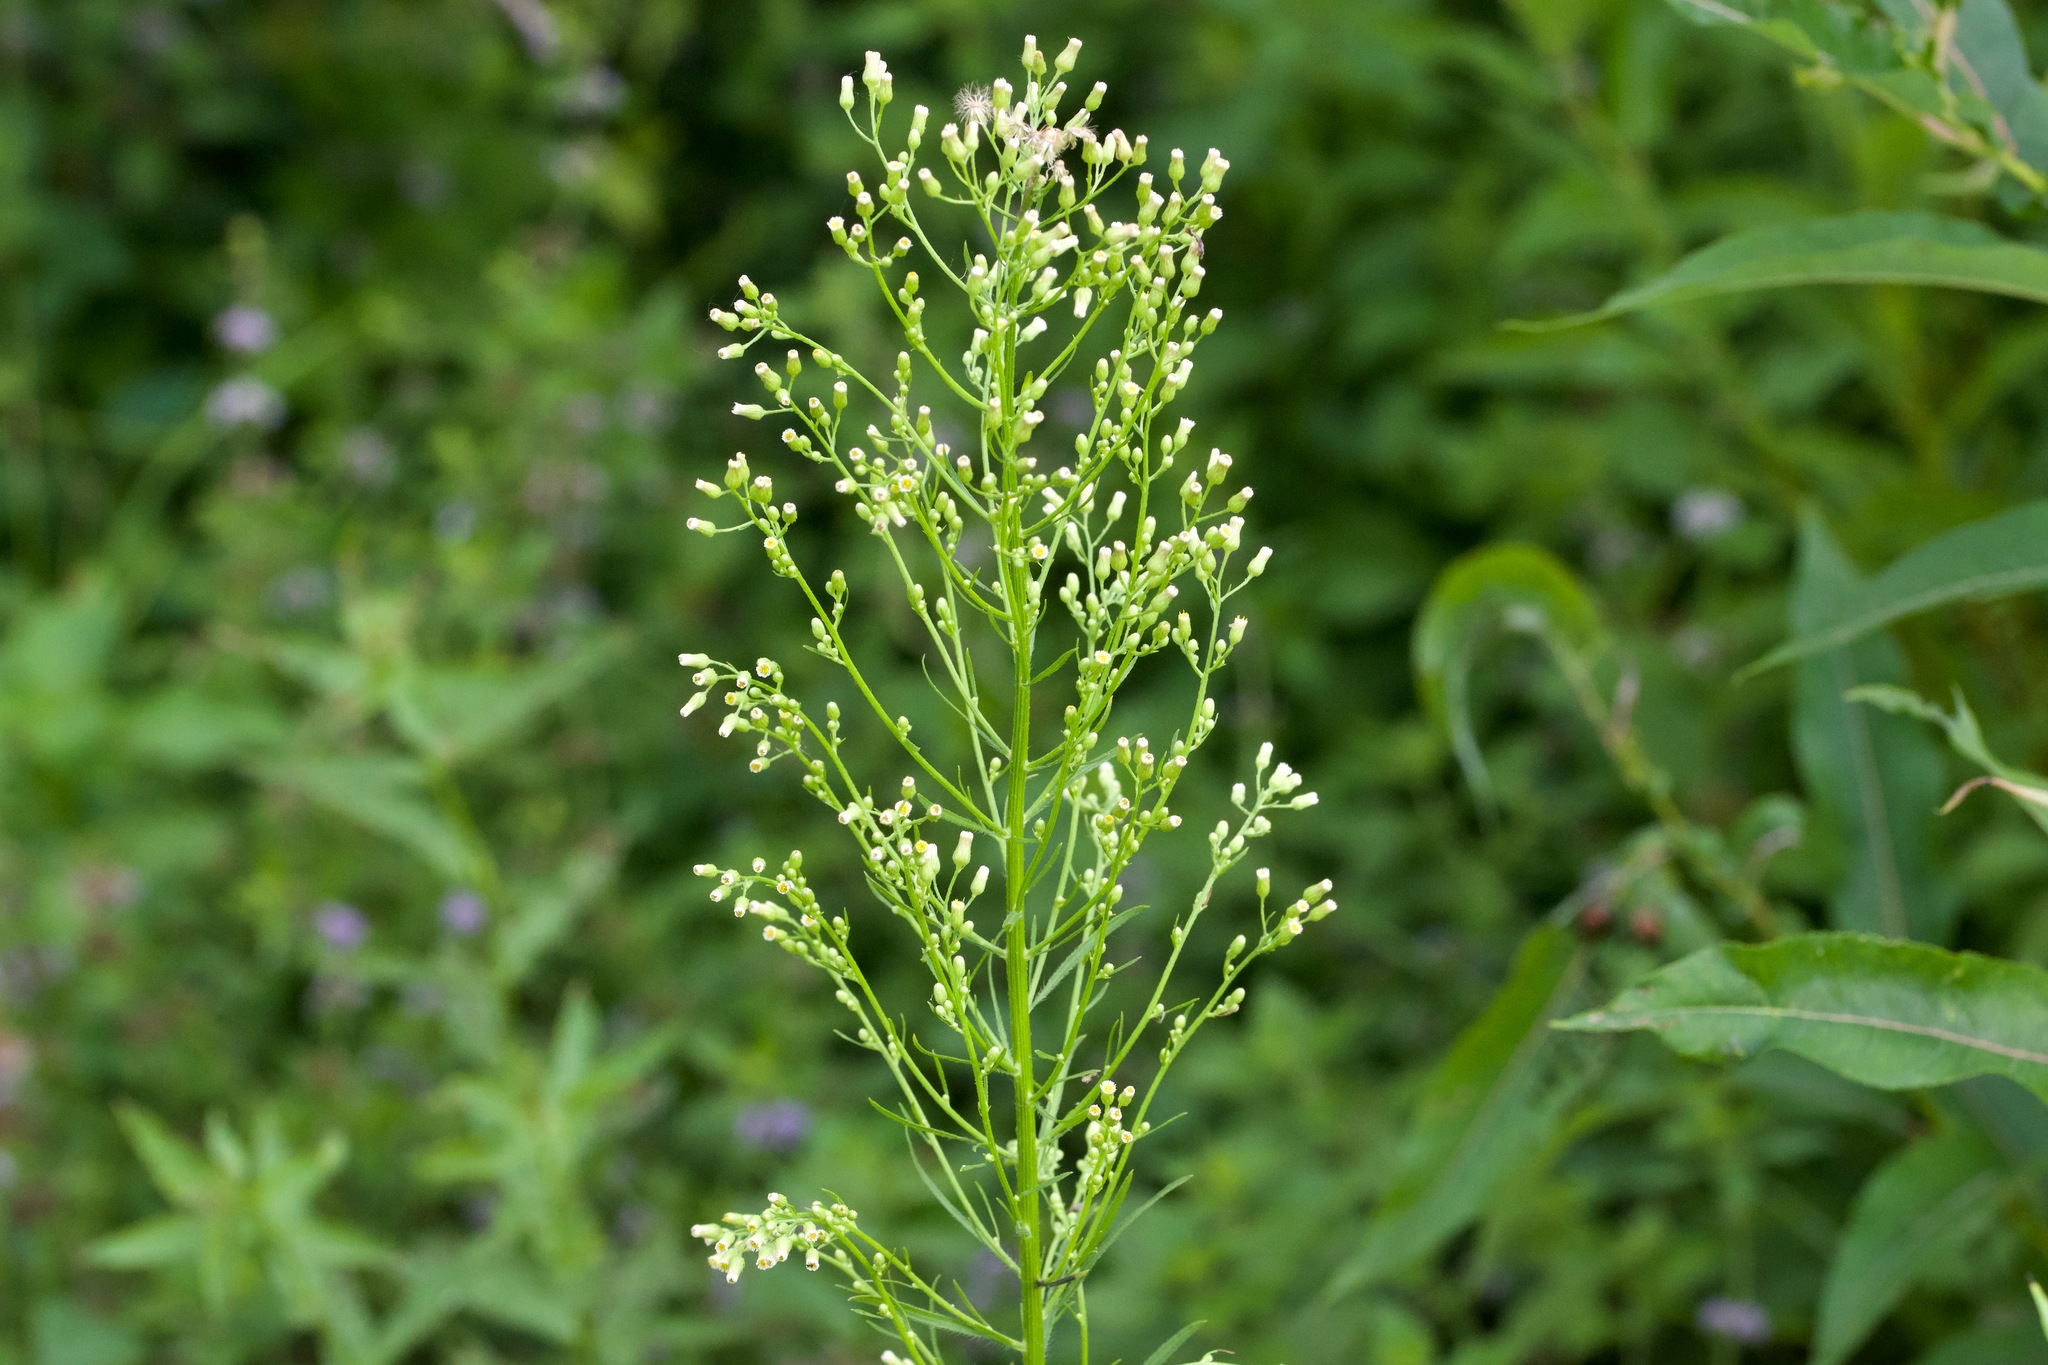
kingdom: Plantae
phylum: Tracheophyta
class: Magnoliopsida
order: Asterales
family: Asteraceae
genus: Erigeron
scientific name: Erigeron canadensis
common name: Canadian fleabane
